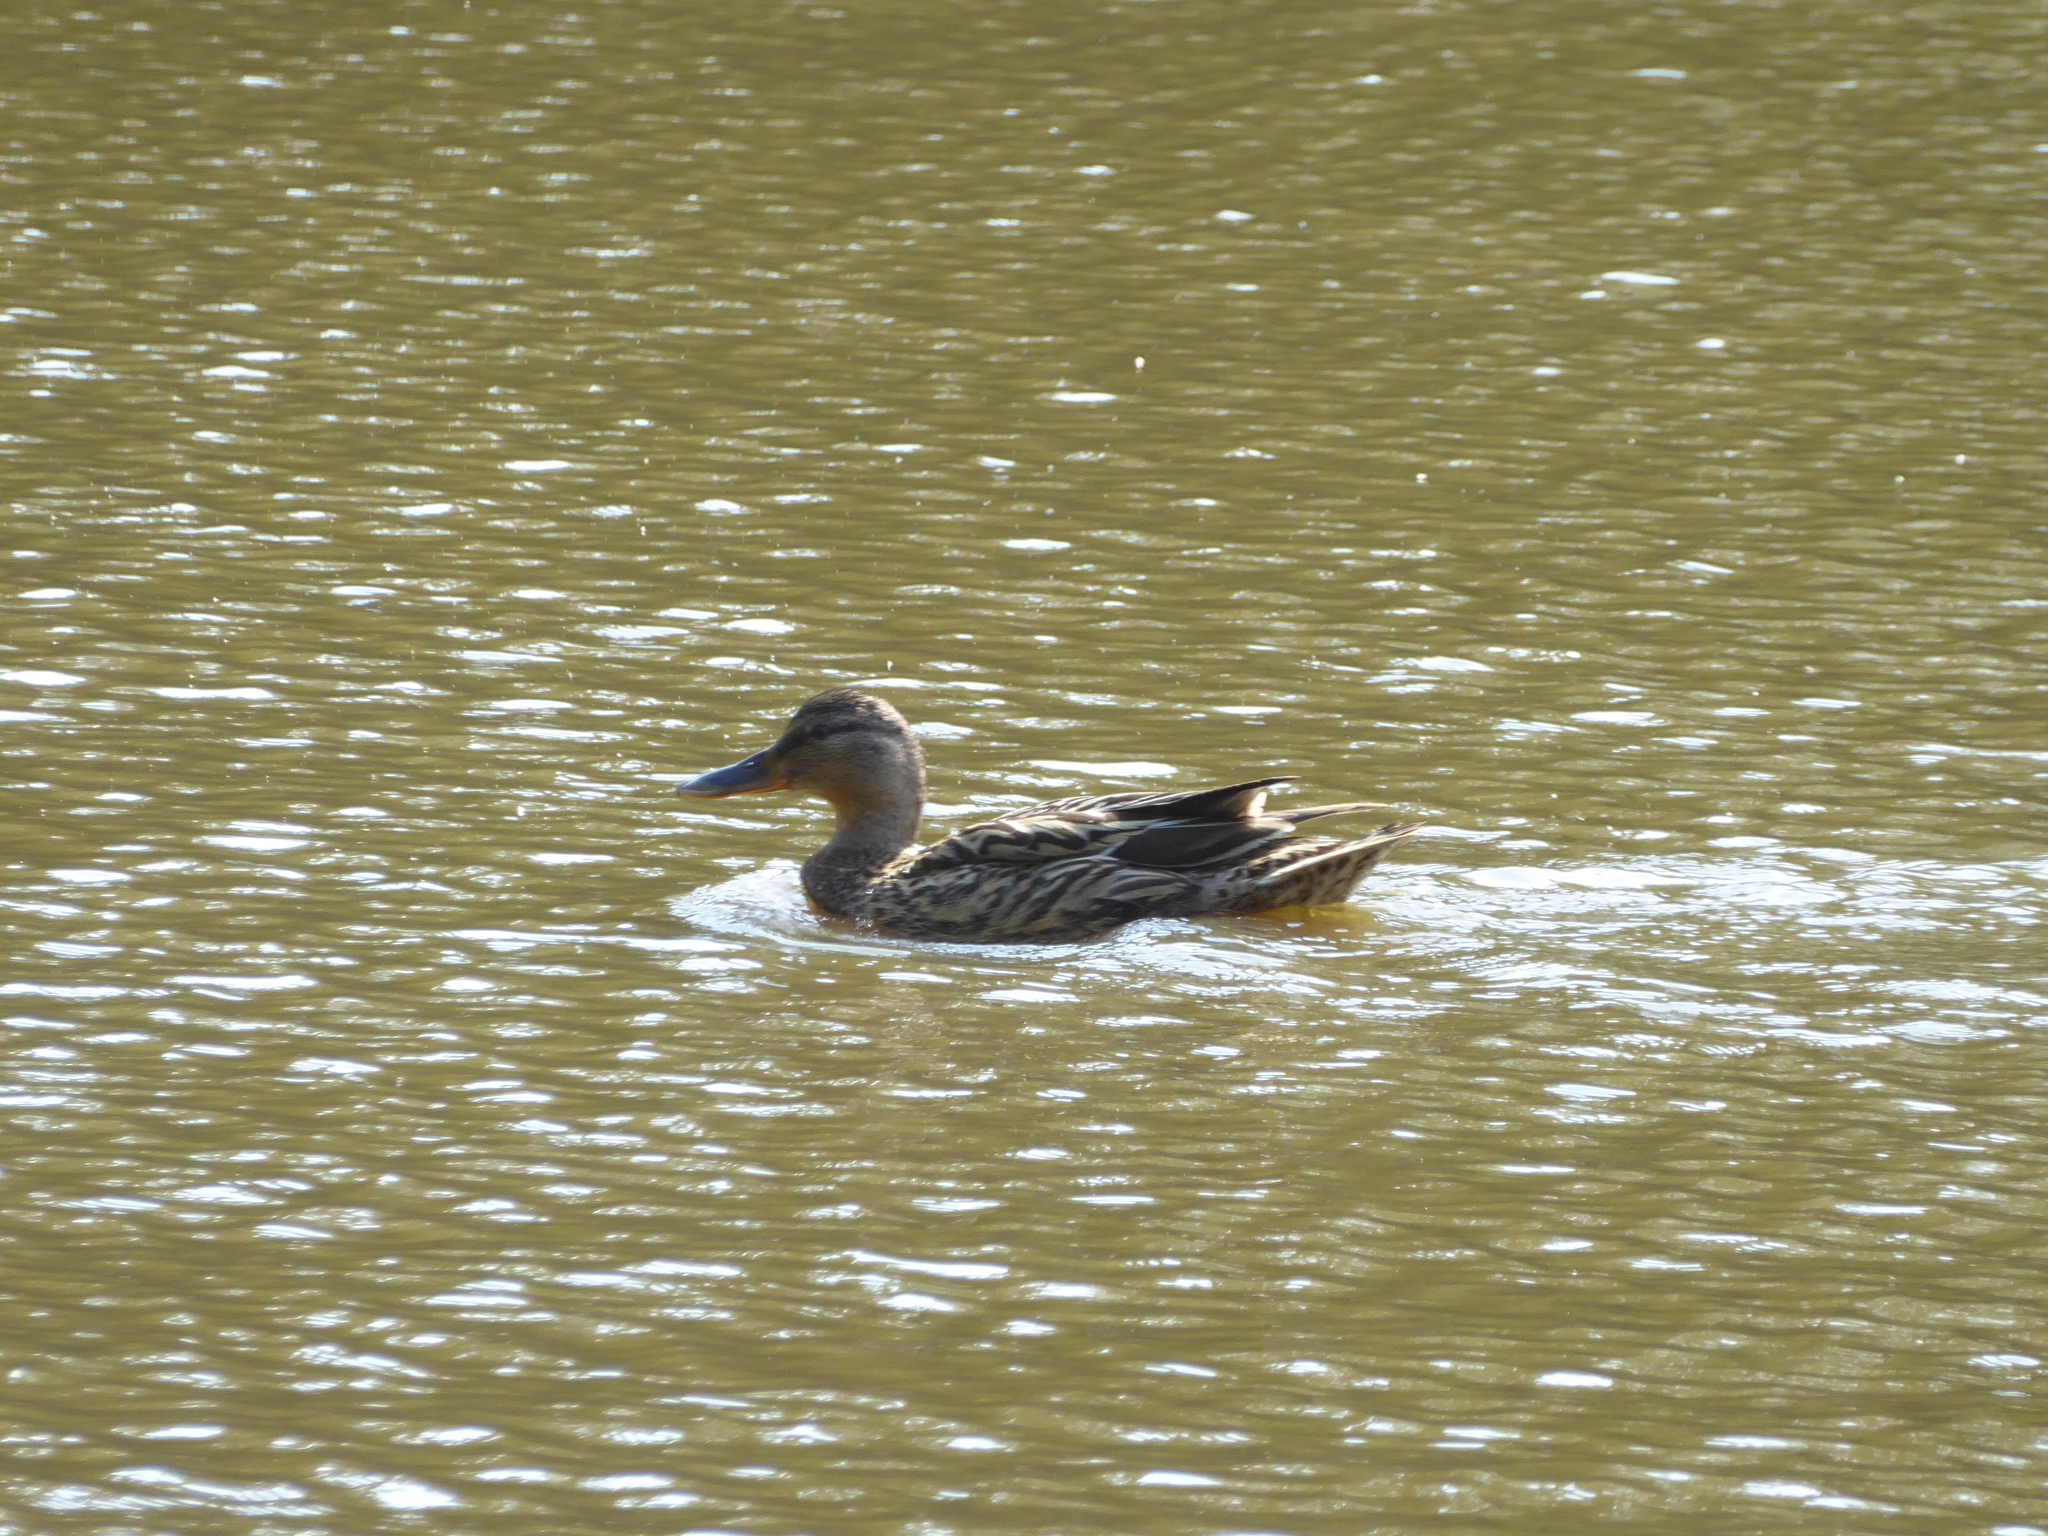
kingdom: Animalia
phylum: Chordata
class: Aves
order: Anseriformes
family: Anatidae
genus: Anas
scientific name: Anas platyrhynchos
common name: Mallard
